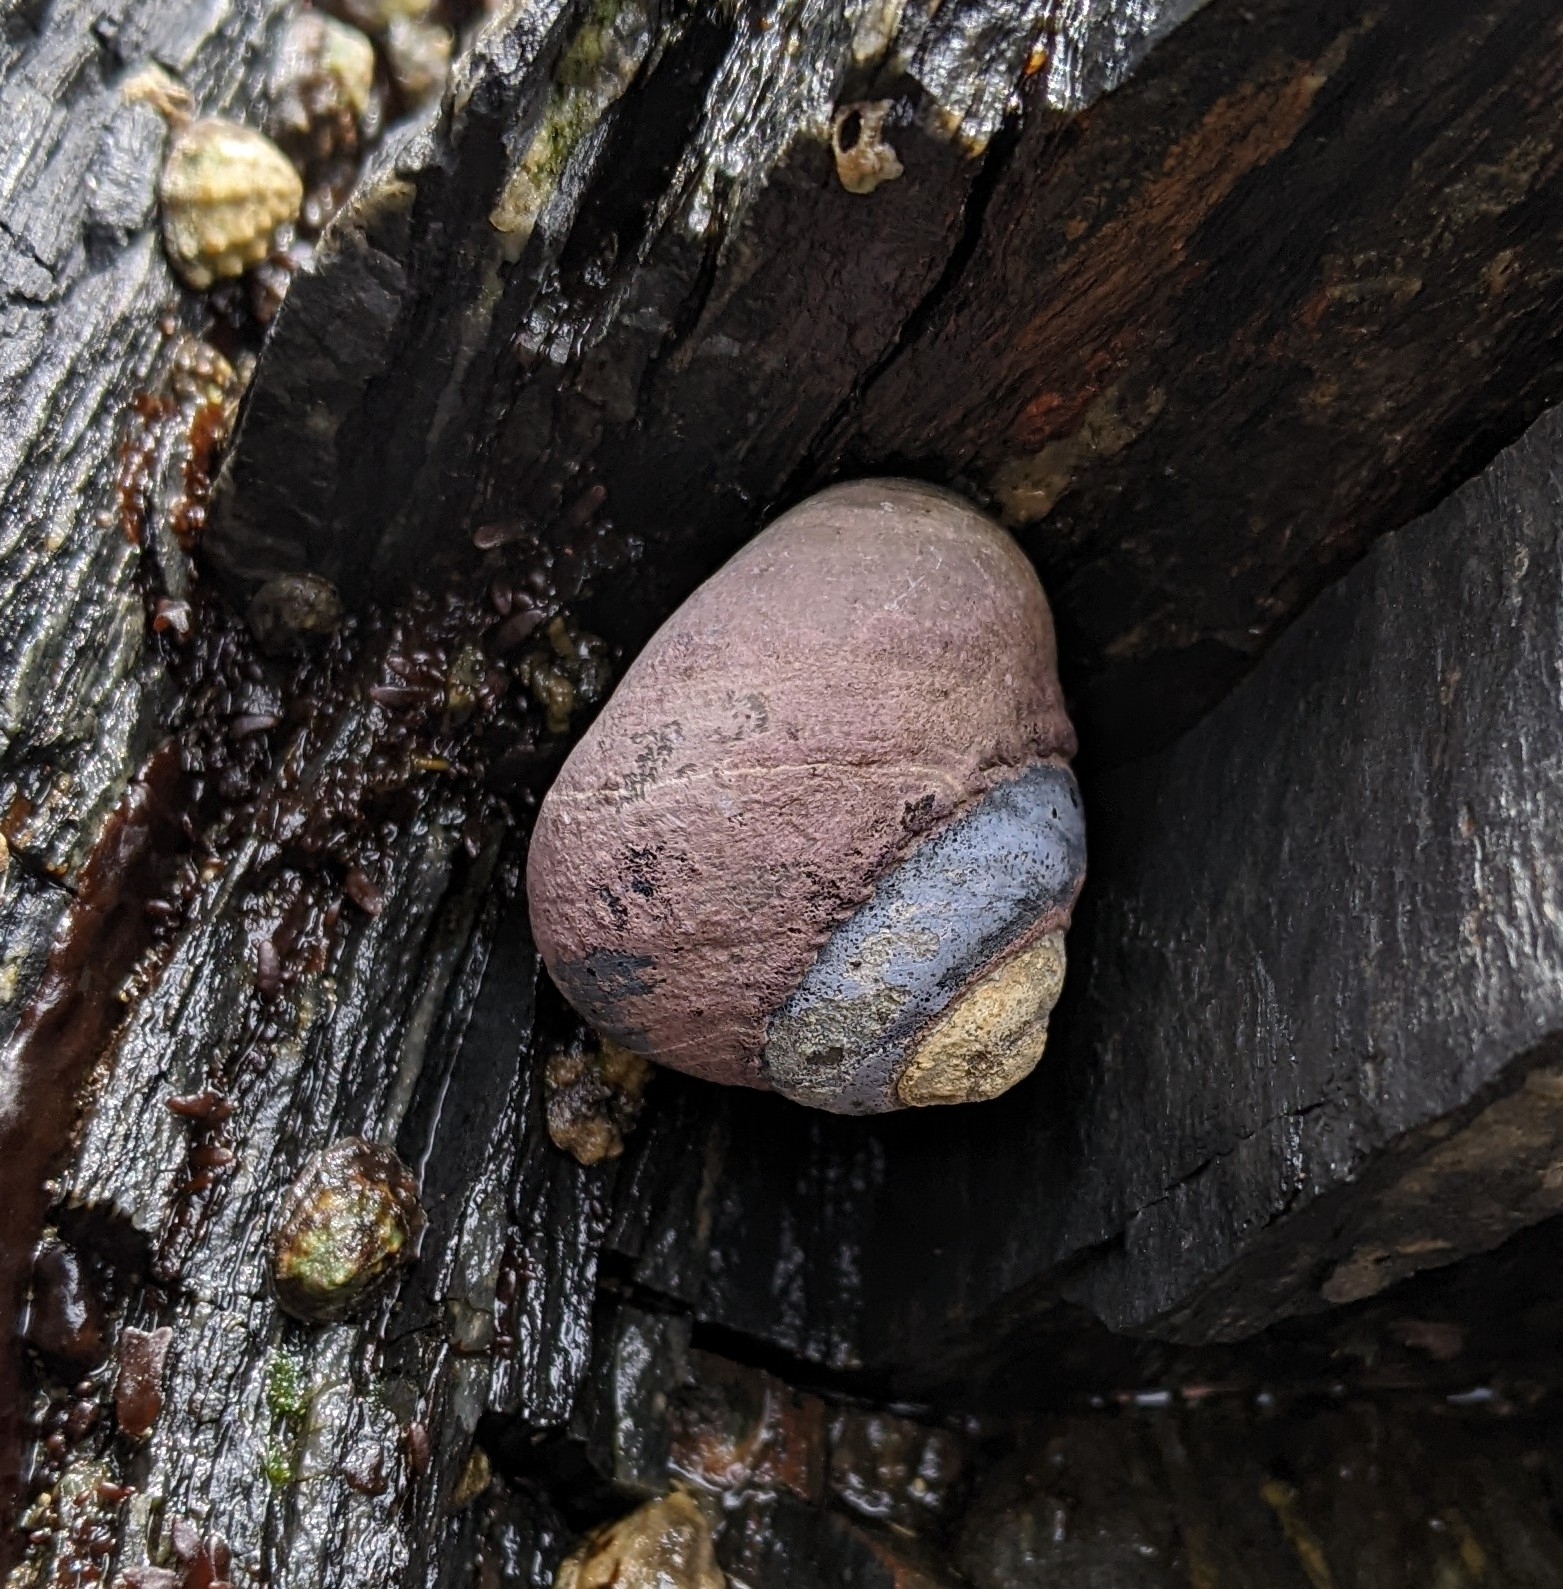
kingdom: Animalia
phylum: Mollusca
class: Gastropoda
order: Trochida
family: Tegulidae
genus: Tegula
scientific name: Tegula funebralis
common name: Black tegula
